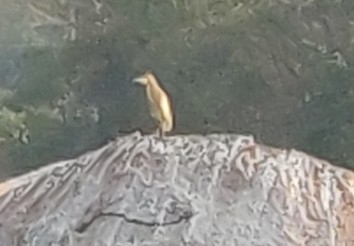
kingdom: Animalia
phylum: Chordata
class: Aves
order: Pelecaniformes
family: Ardeidae
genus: Ardeola
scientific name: Ardeola grayii
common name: Indian pond heron
